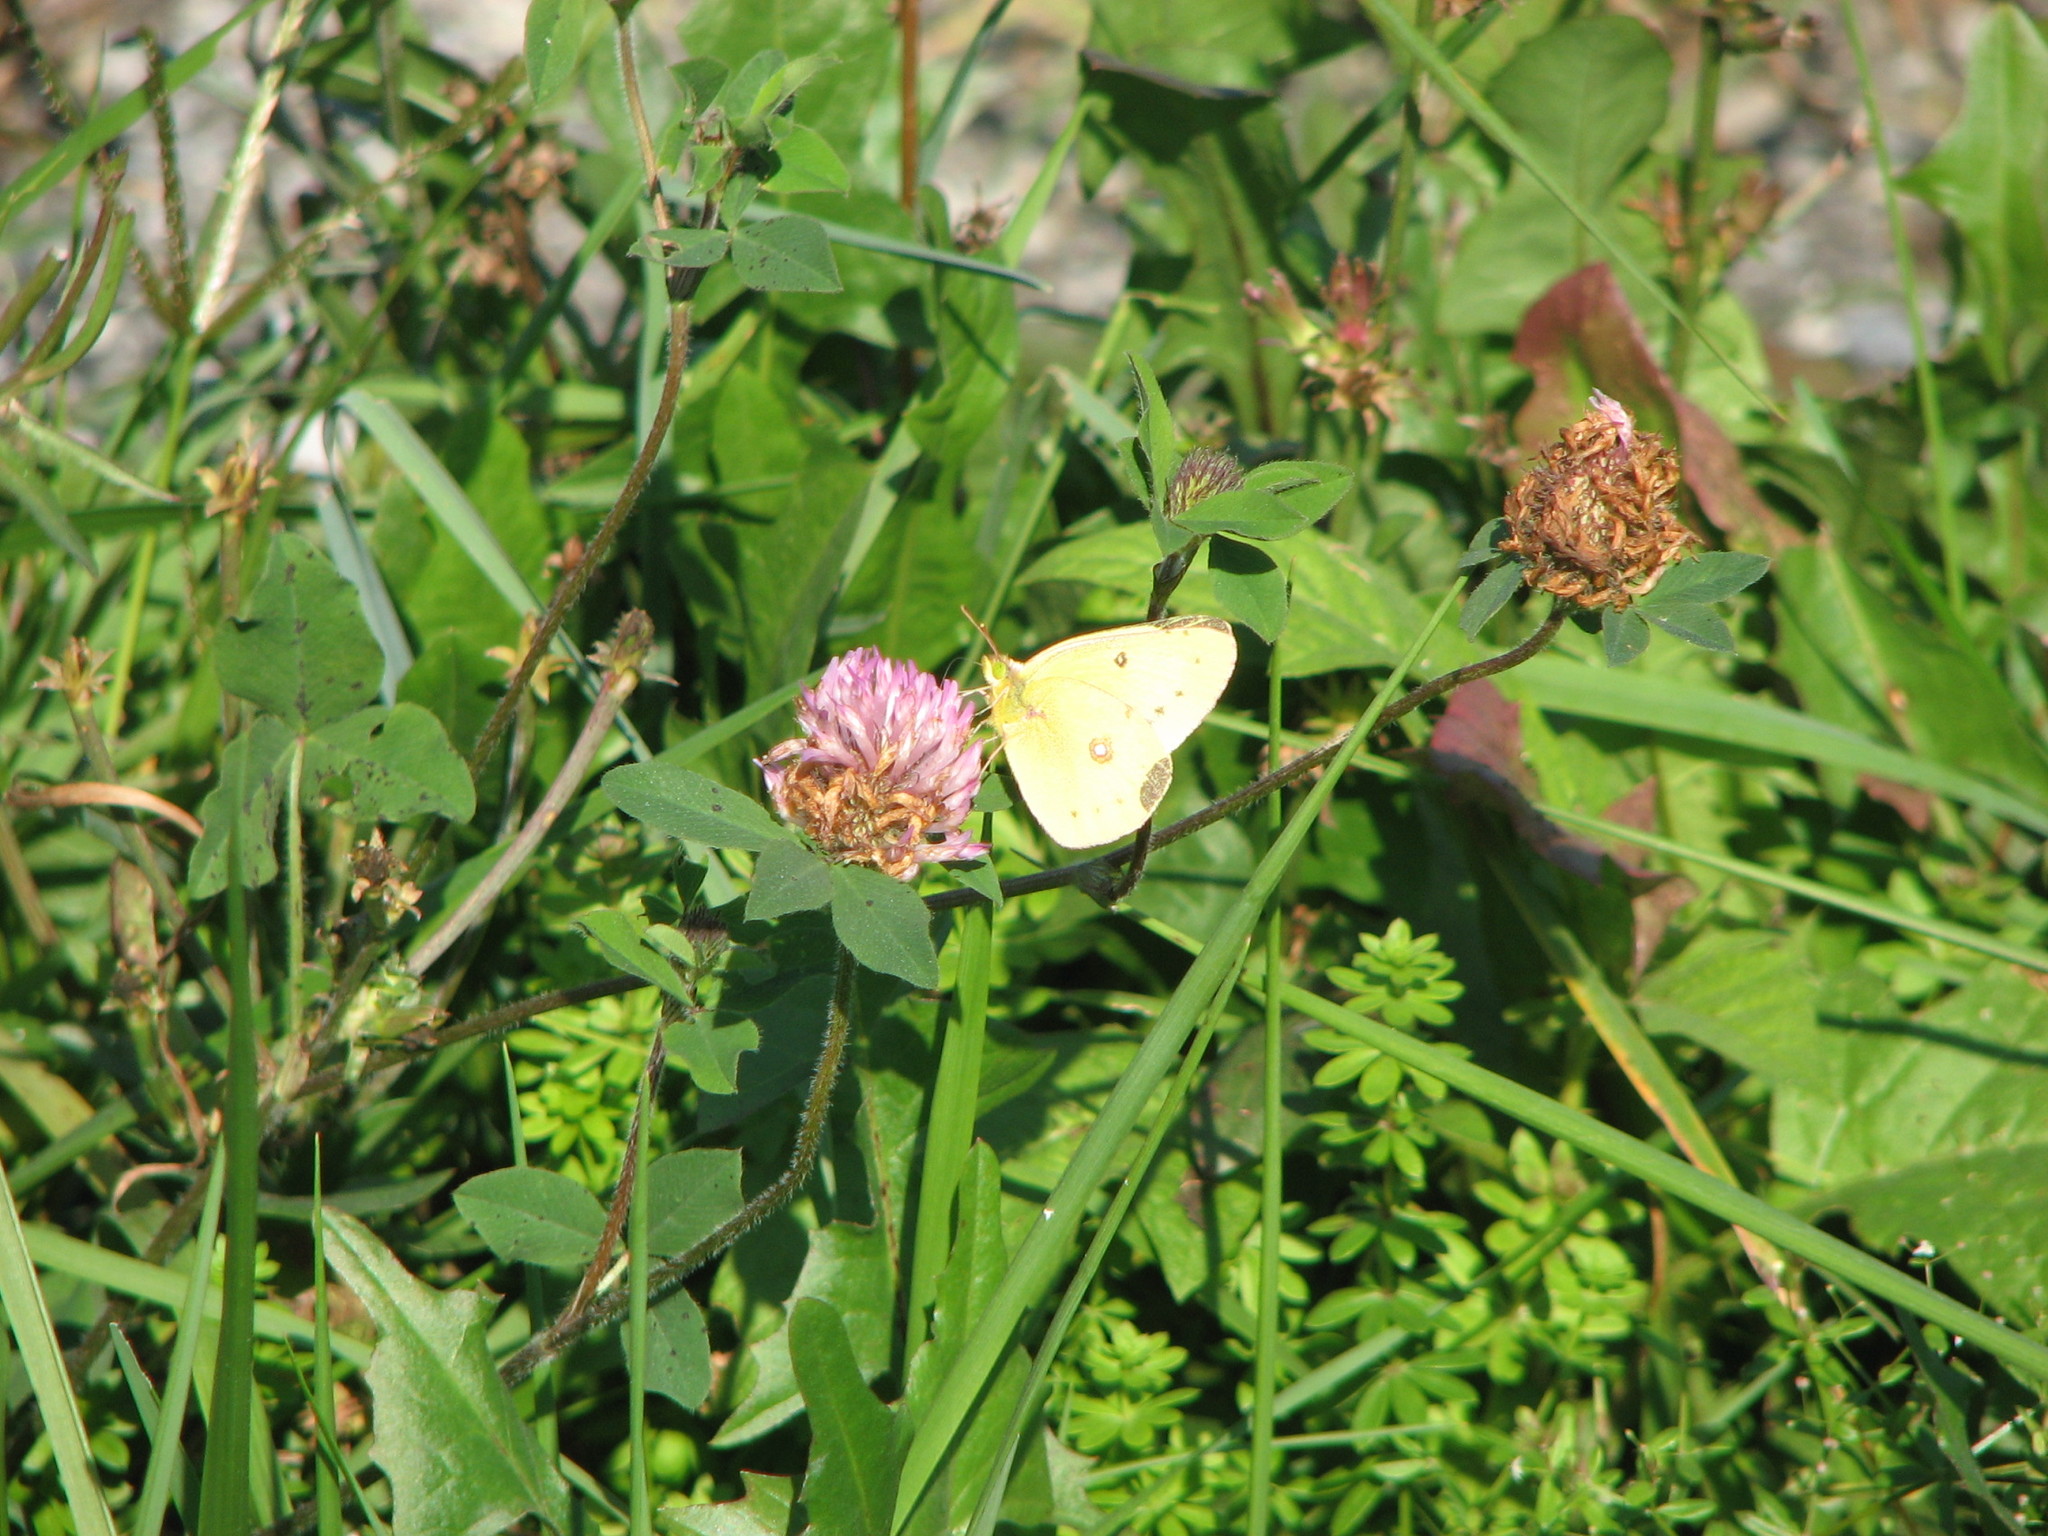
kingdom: Plantae
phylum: Tracheophyta
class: Magnoliopsida
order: Fabales
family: Fabaceae
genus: Trifolium
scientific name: Trifolium pratense
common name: Red clover
